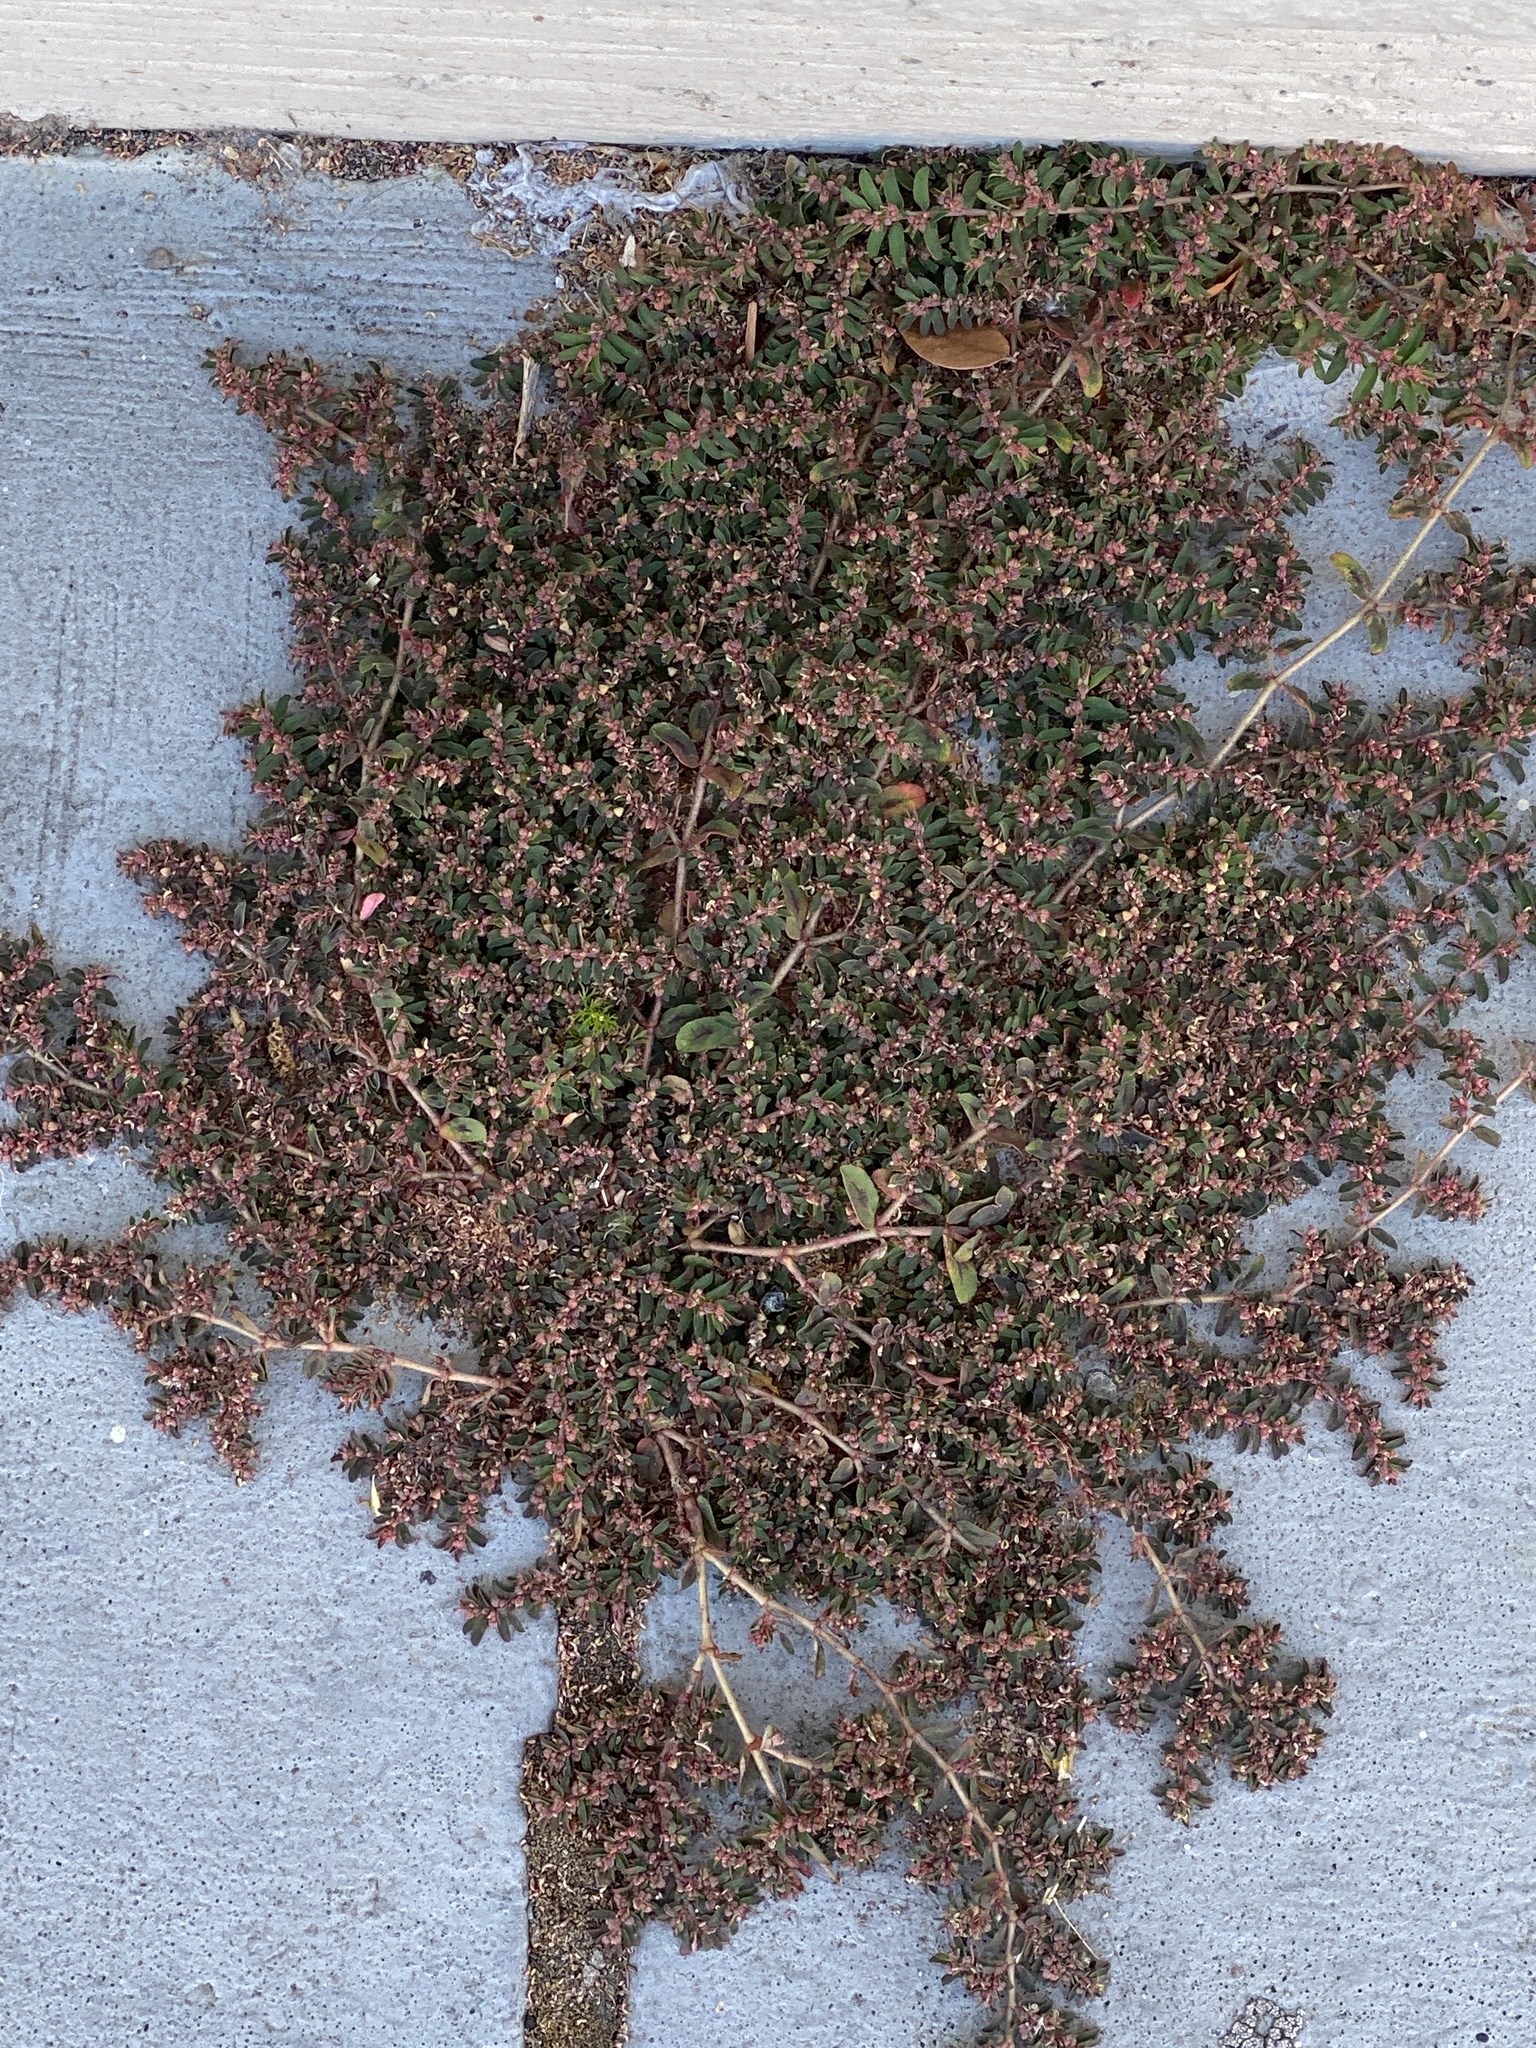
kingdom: Plantae
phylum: Tracheophyta
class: Magnoliopsida
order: Malpighiales
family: Euphorbiaceae
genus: Euphorbia
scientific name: Euphorbia maculata
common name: Spotted spurge
